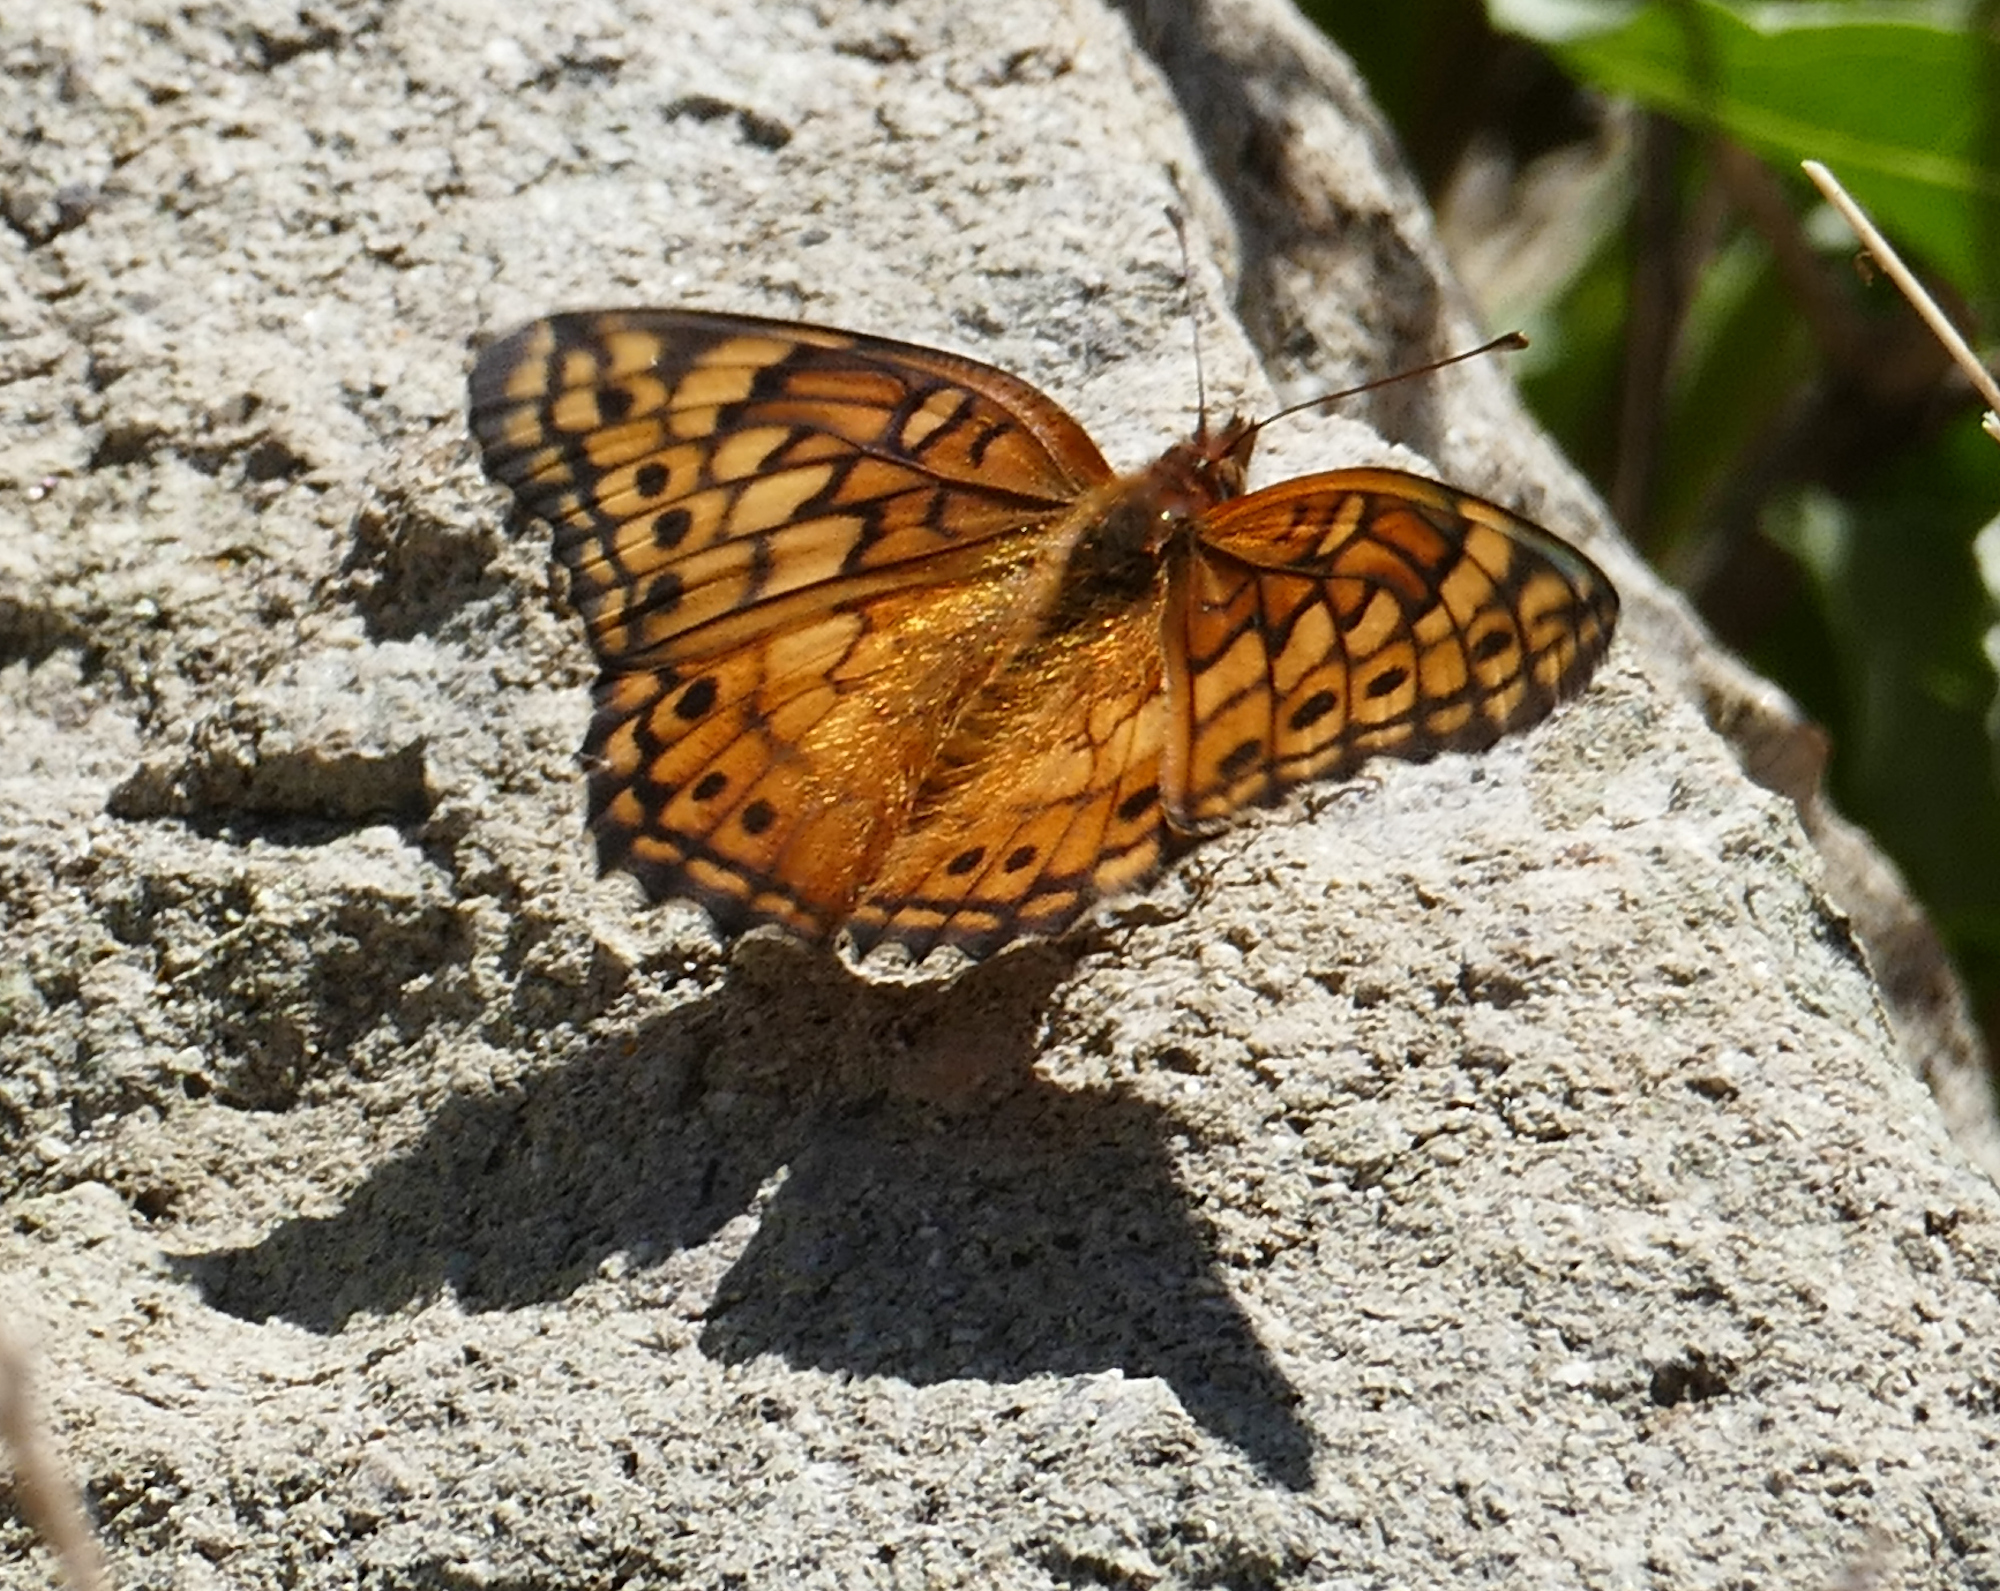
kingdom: Animalia
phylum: Arthropoda
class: Insecta
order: Lepidoptera
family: Nymphalidae
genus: Euptoieta
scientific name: Euptoieta claudia
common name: Variegated fritillary
